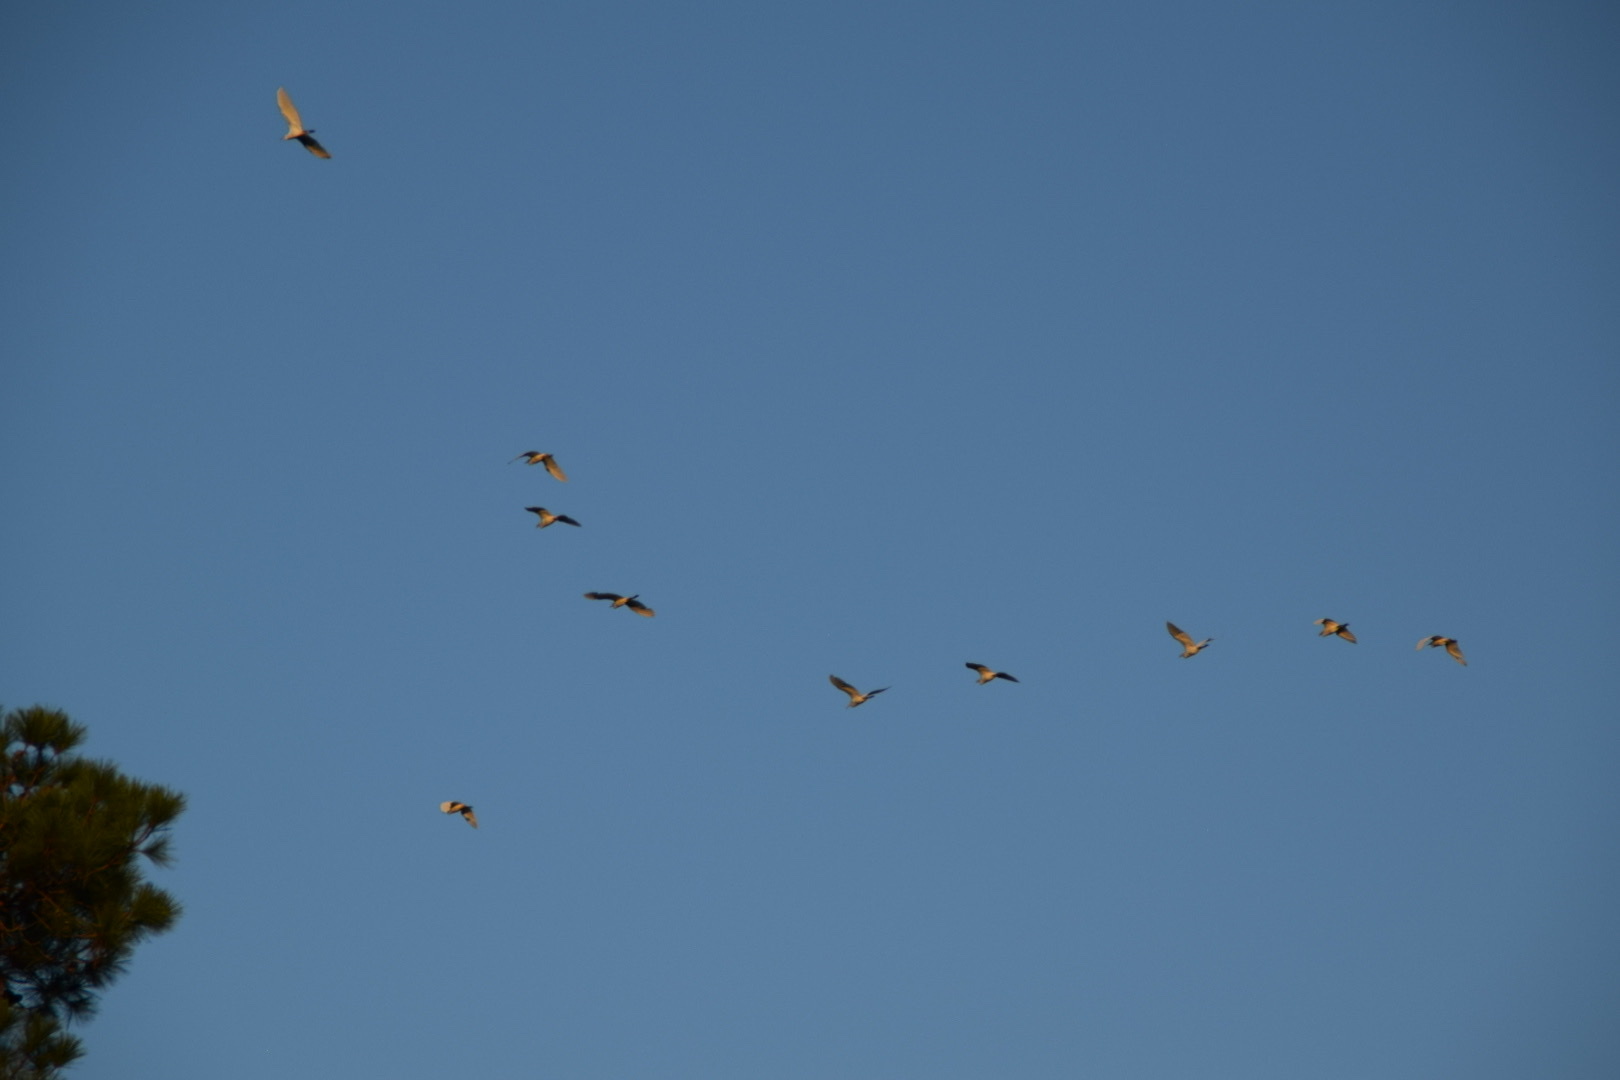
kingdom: Animalia
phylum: Chordata
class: Aves
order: Pelecaniformes
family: Ardeidae
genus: Bubulcus
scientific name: Bubulcus ibis
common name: Cattle egret
